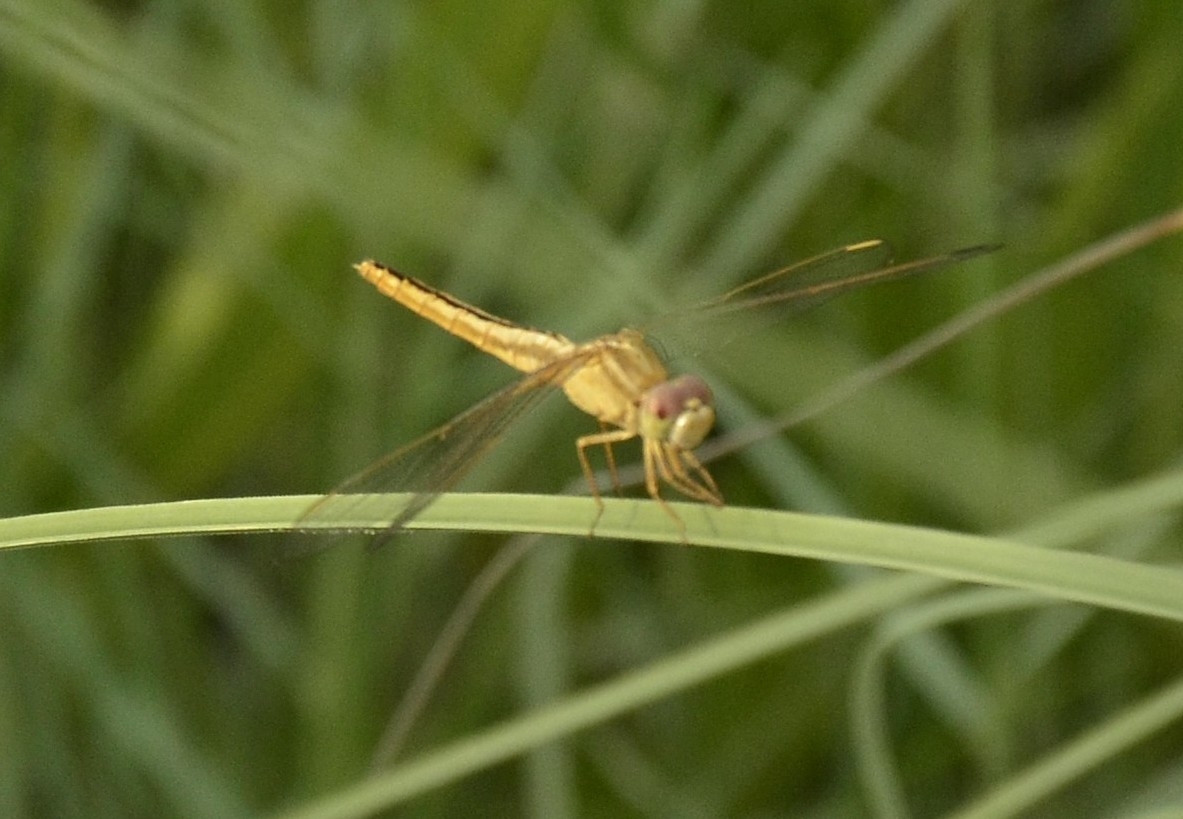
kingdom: Animalia
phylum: Arthropoda
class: Insecta
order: Odonata
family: Libellulidae
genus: Crocothemis
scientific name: Crocothemis servilia
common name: Scarlet skimmer
